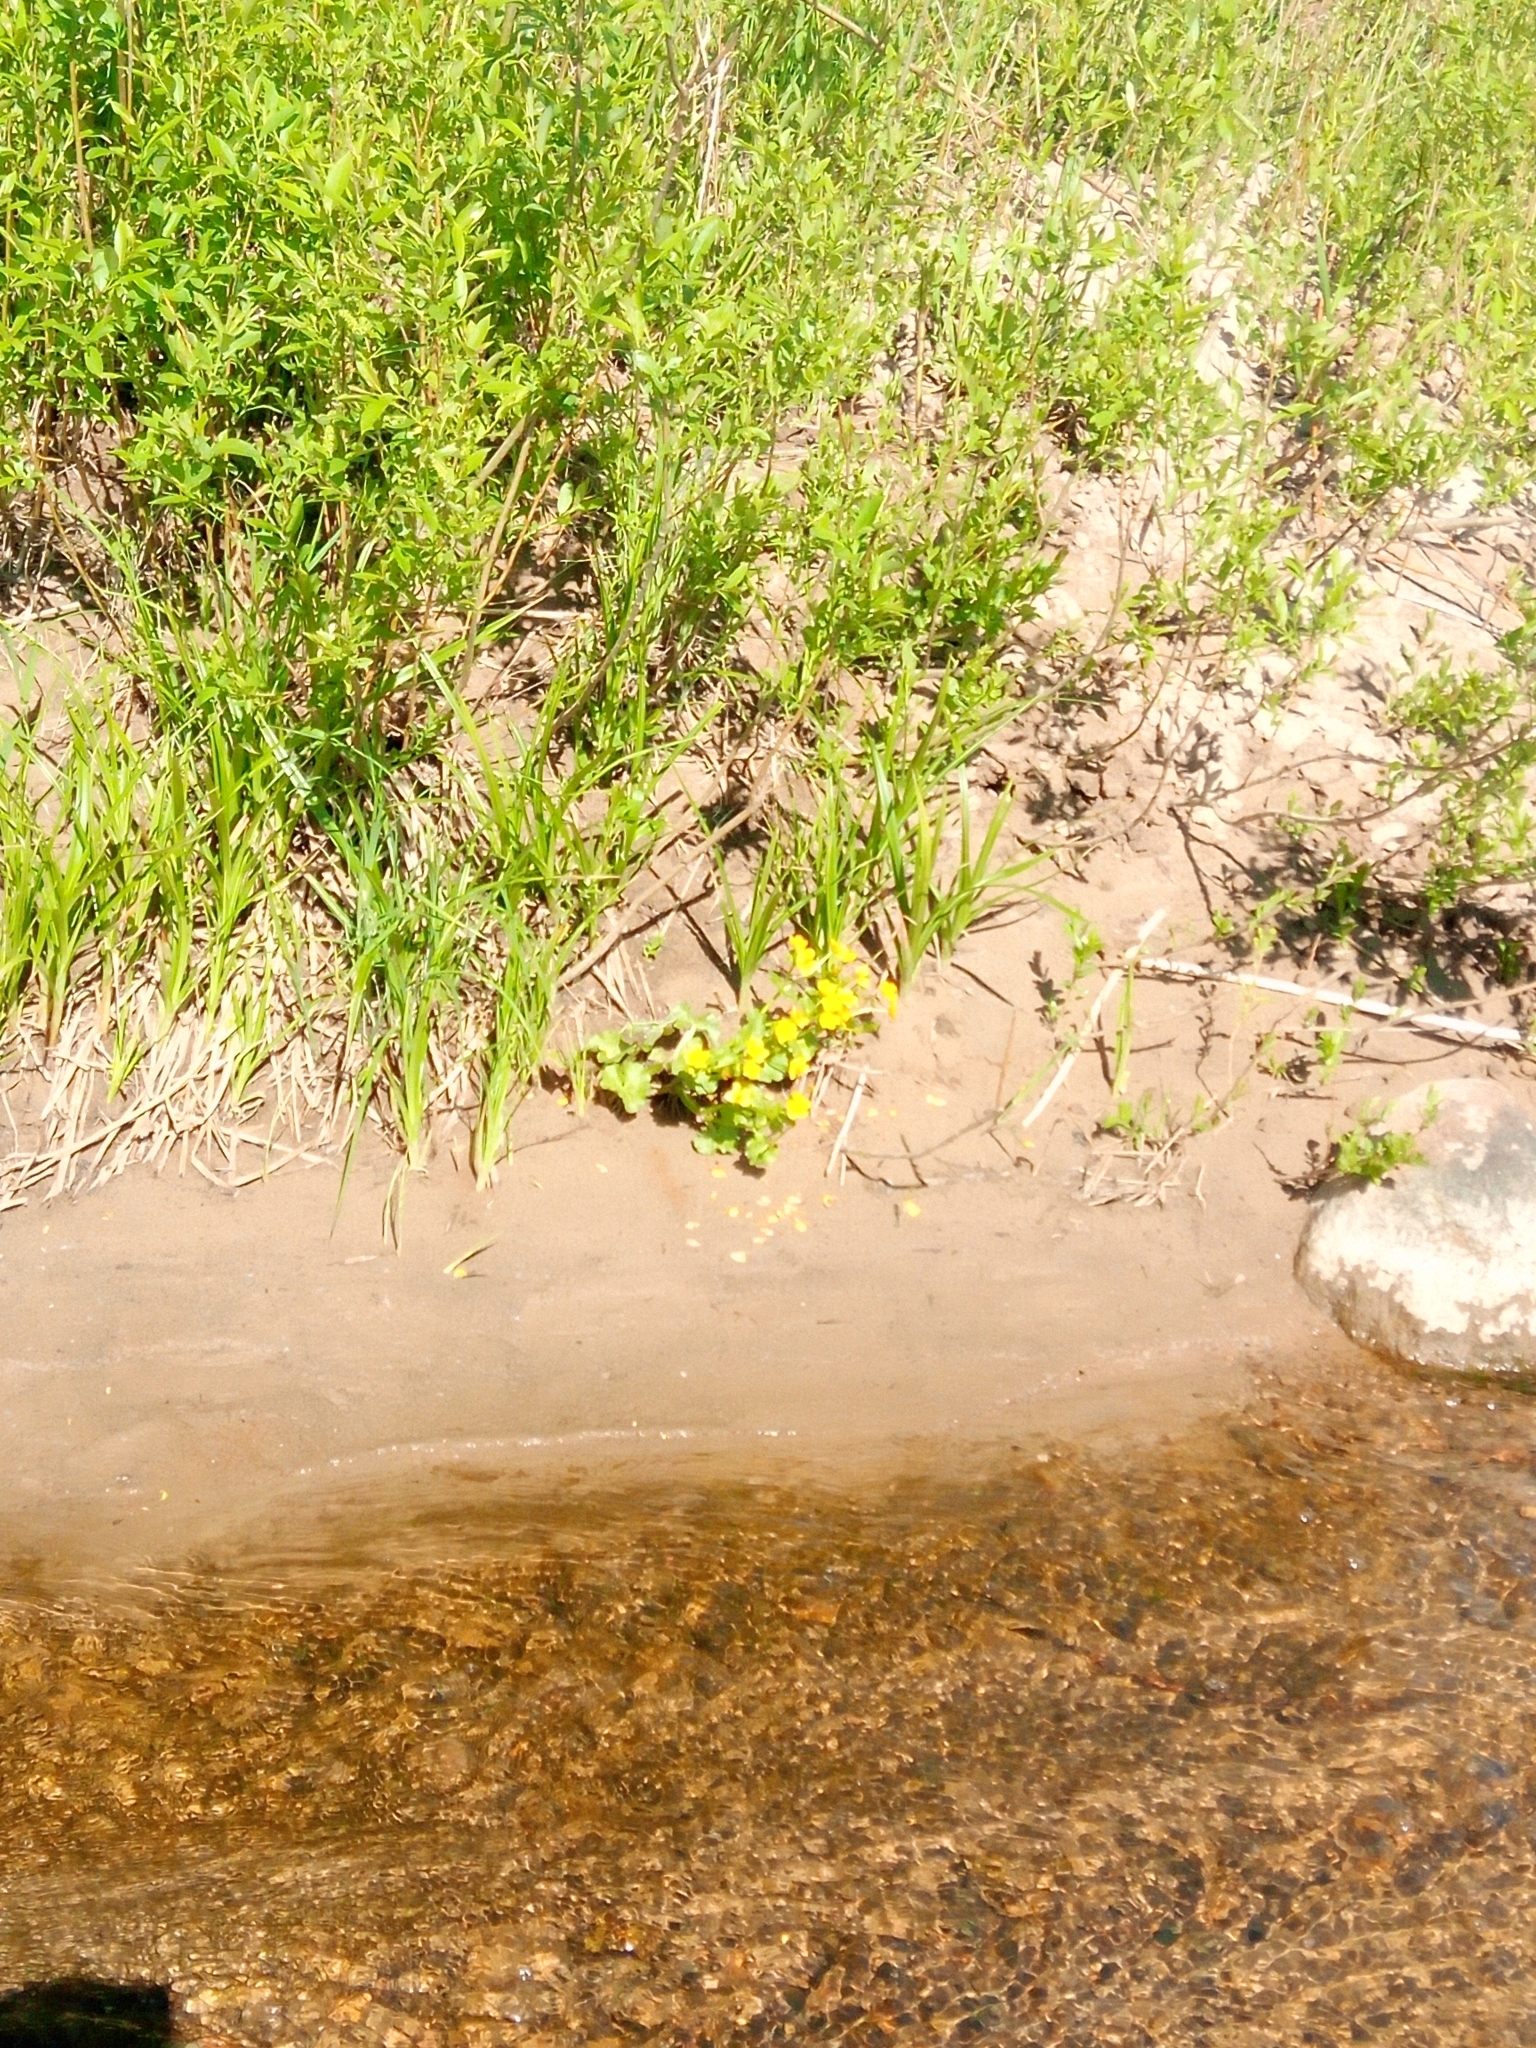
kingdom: Plantae
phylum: Tracheophyta
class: Magnoliopsida
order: Ranunculales
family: Ranunculaceae
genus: Caltha
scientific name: Caltha palustris
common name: Marsh marigold
